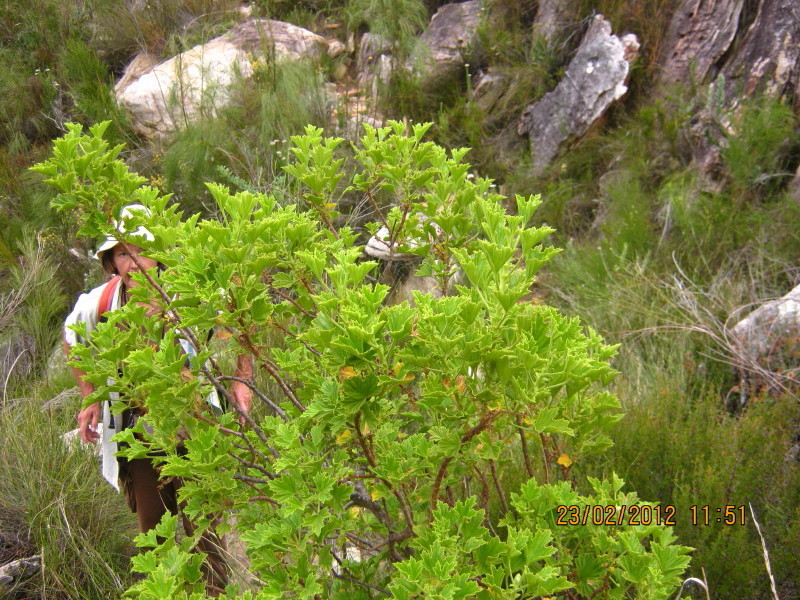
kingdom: Plantae
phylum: Tracheophyta
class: Magnoliopsida
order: Geraniales
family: Geraniaceae
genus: Pelargonium
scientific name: Pelargonium citronellum
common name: Lemon-scent pelargonium
